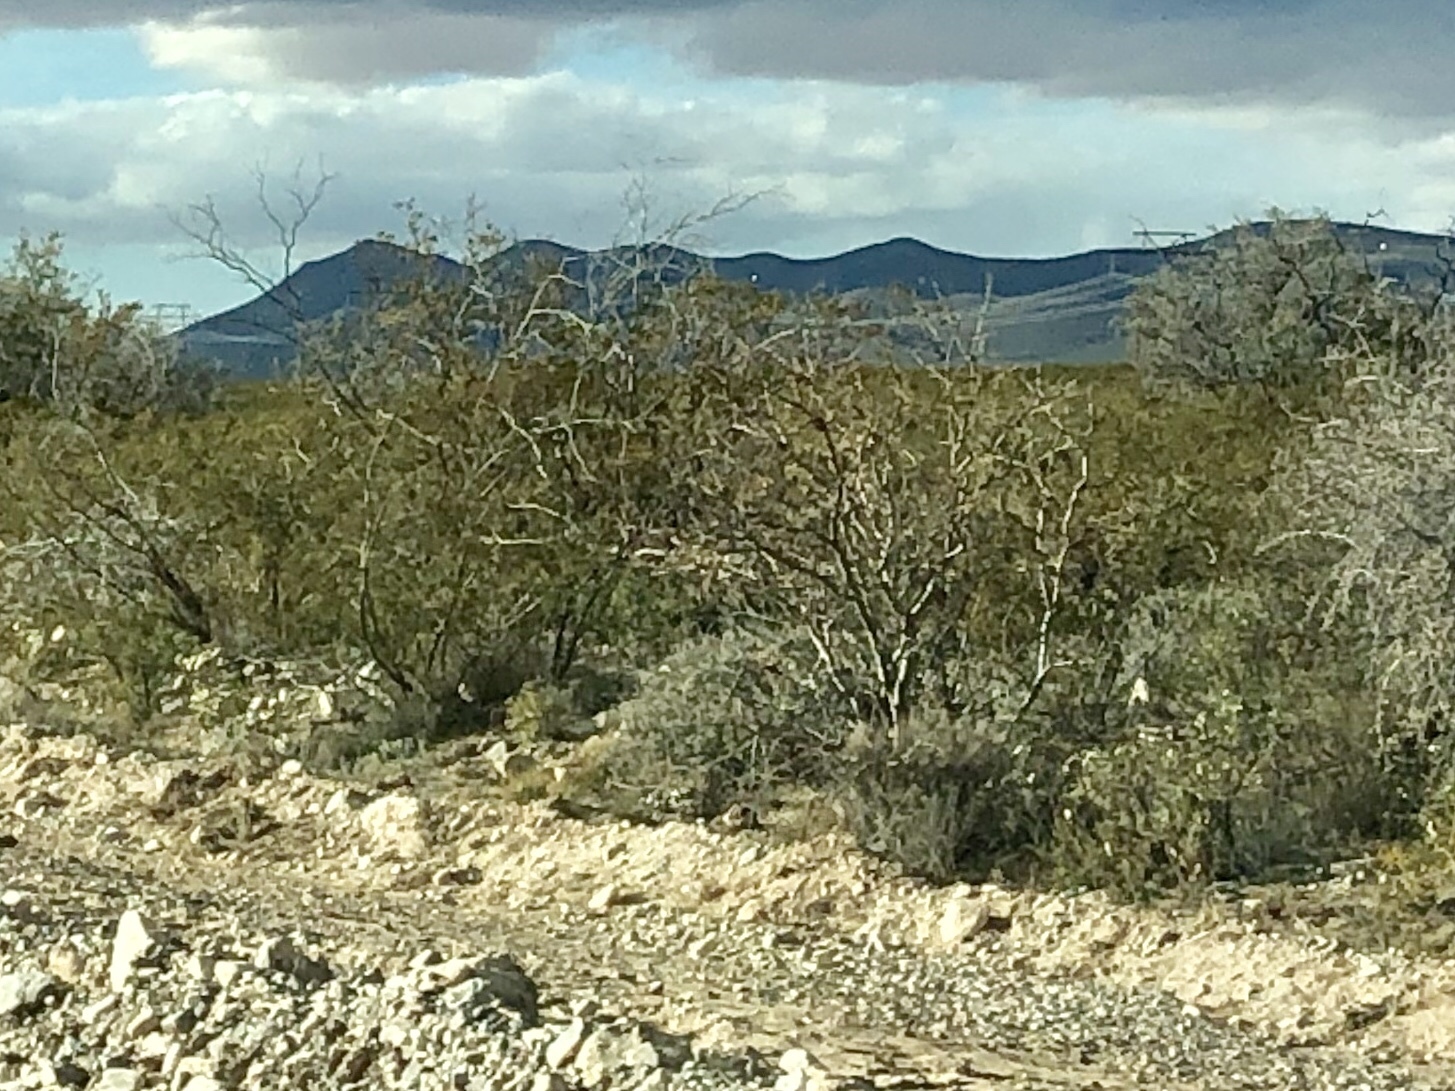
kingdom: Plantae
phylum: Tracheophyta
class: Magnoliopsida
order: Zygophyllales
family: Zygophyllaceae
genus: Larrea
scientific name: Larrea tridentata
